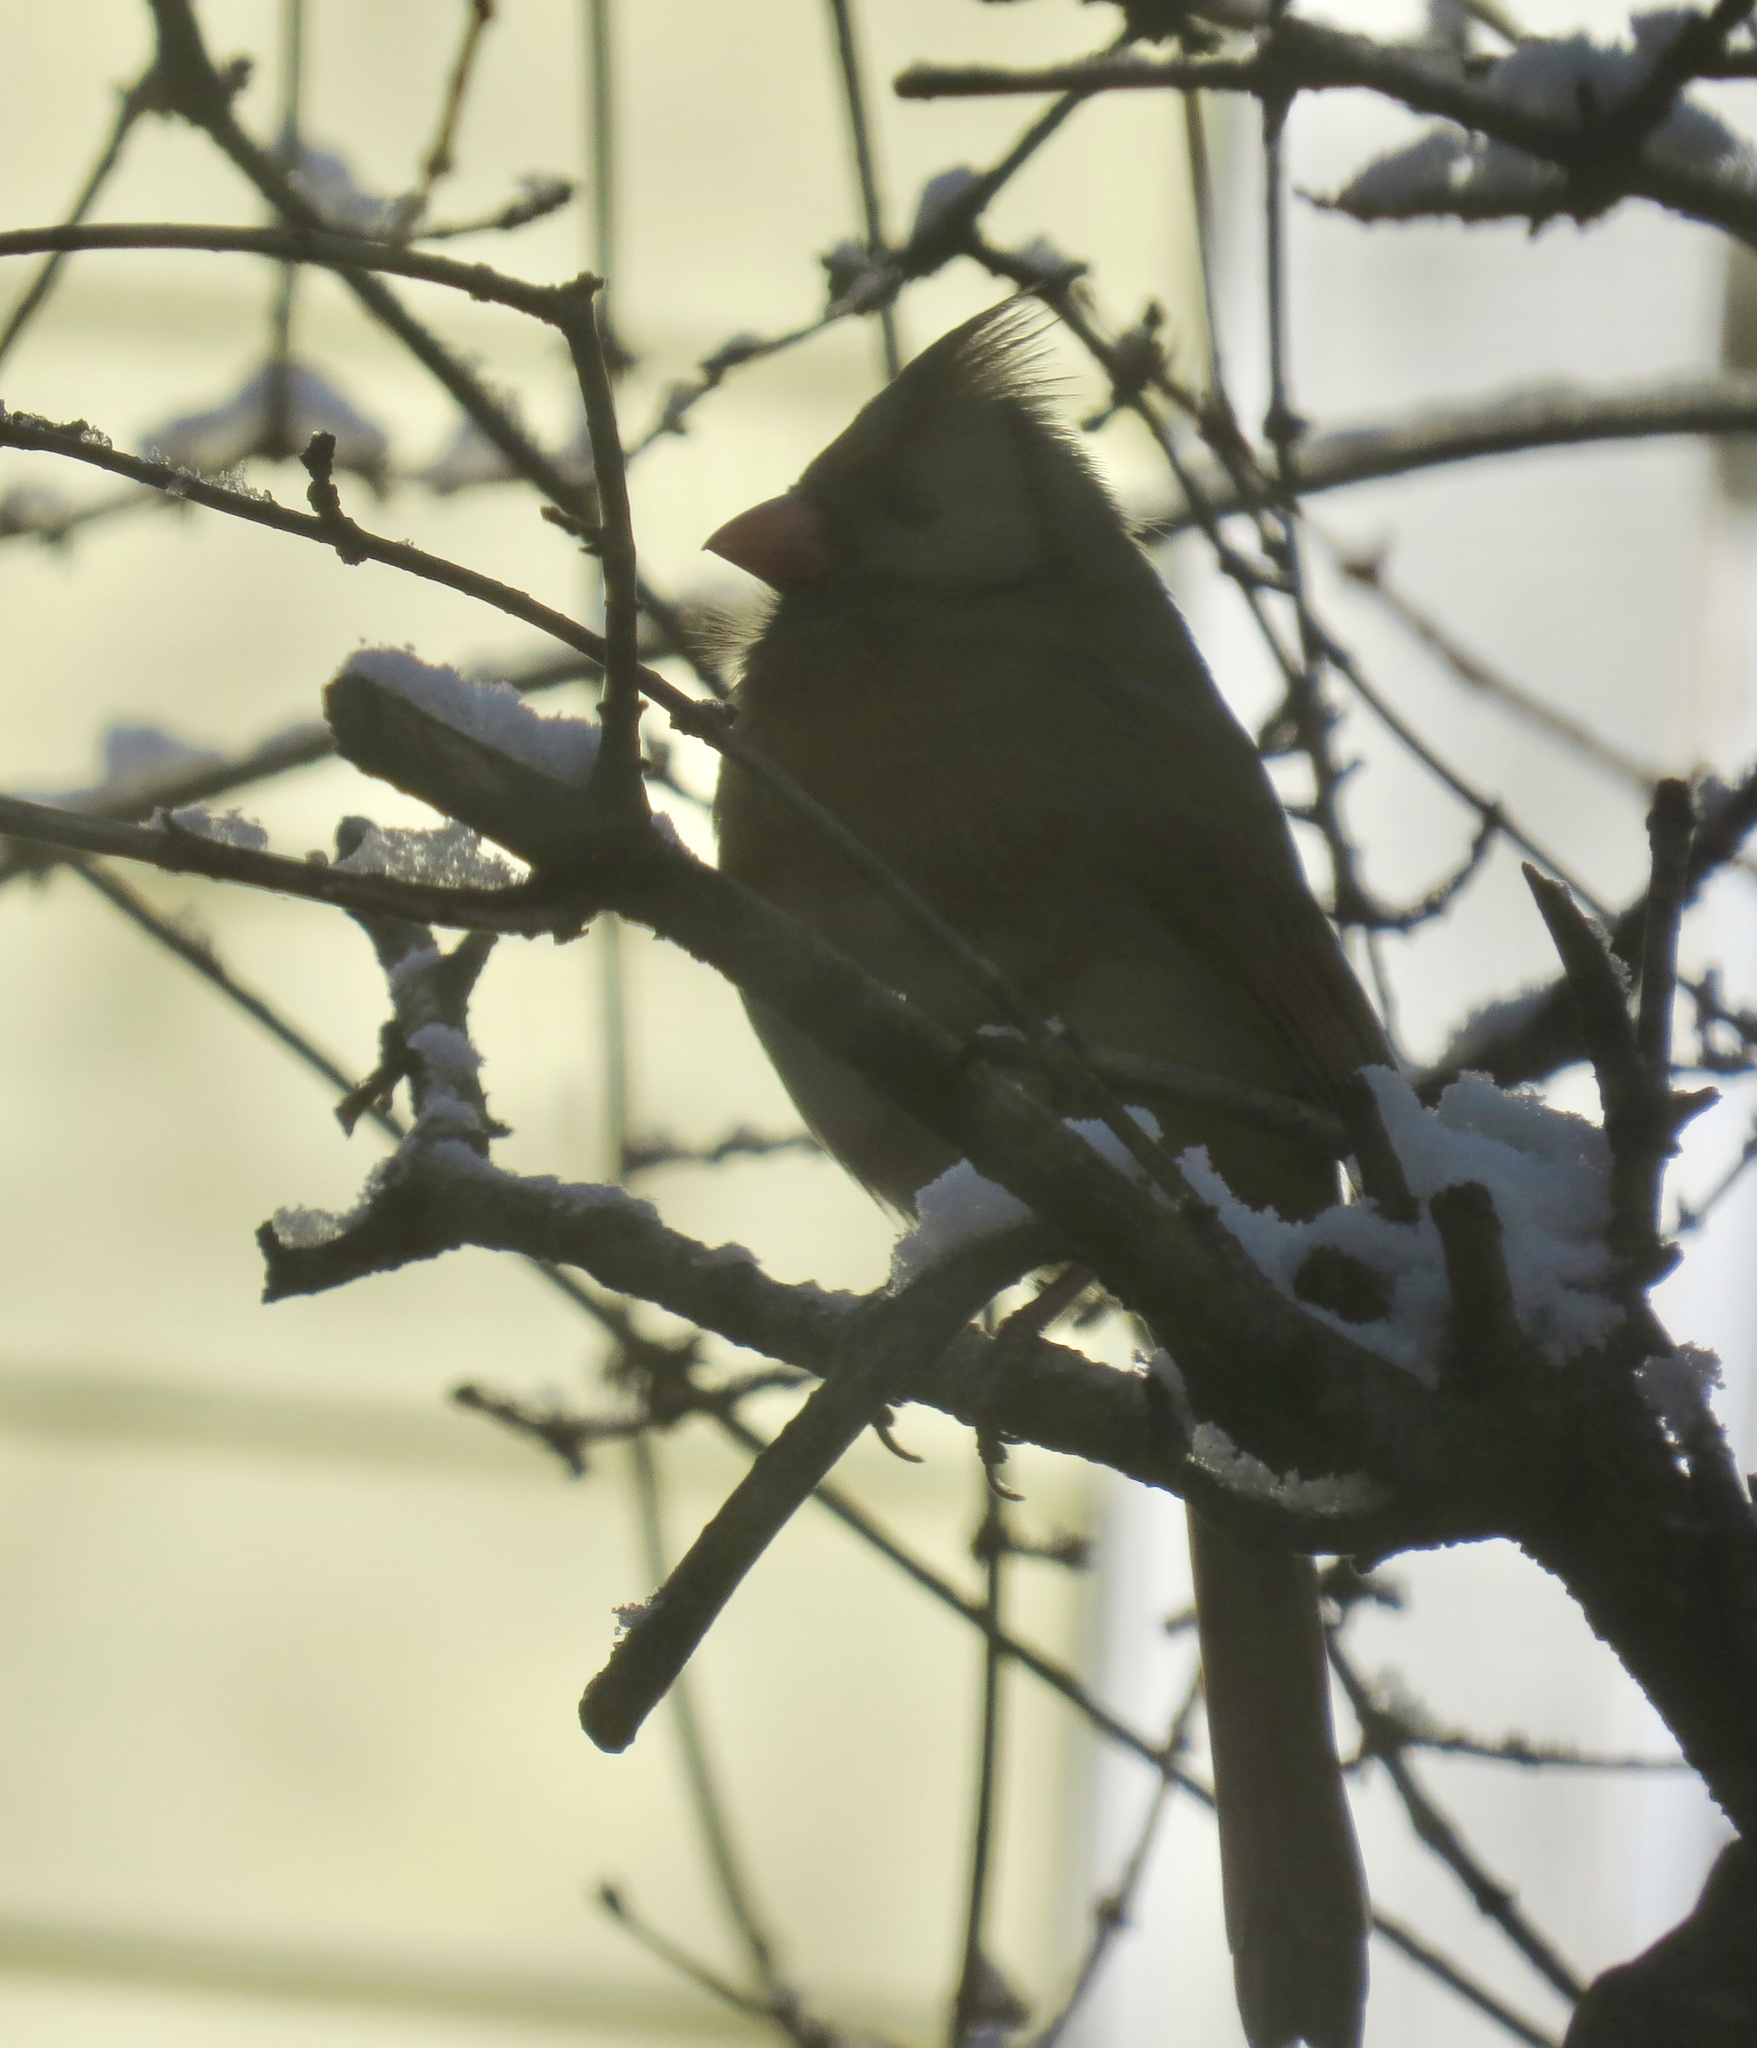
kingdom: Animalia
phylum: Chordata
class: Aves
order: Passeriformes
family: Cardinalidae
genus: Cardinalis
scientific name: Cardinalis cardinalis
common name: Northern cardinal
